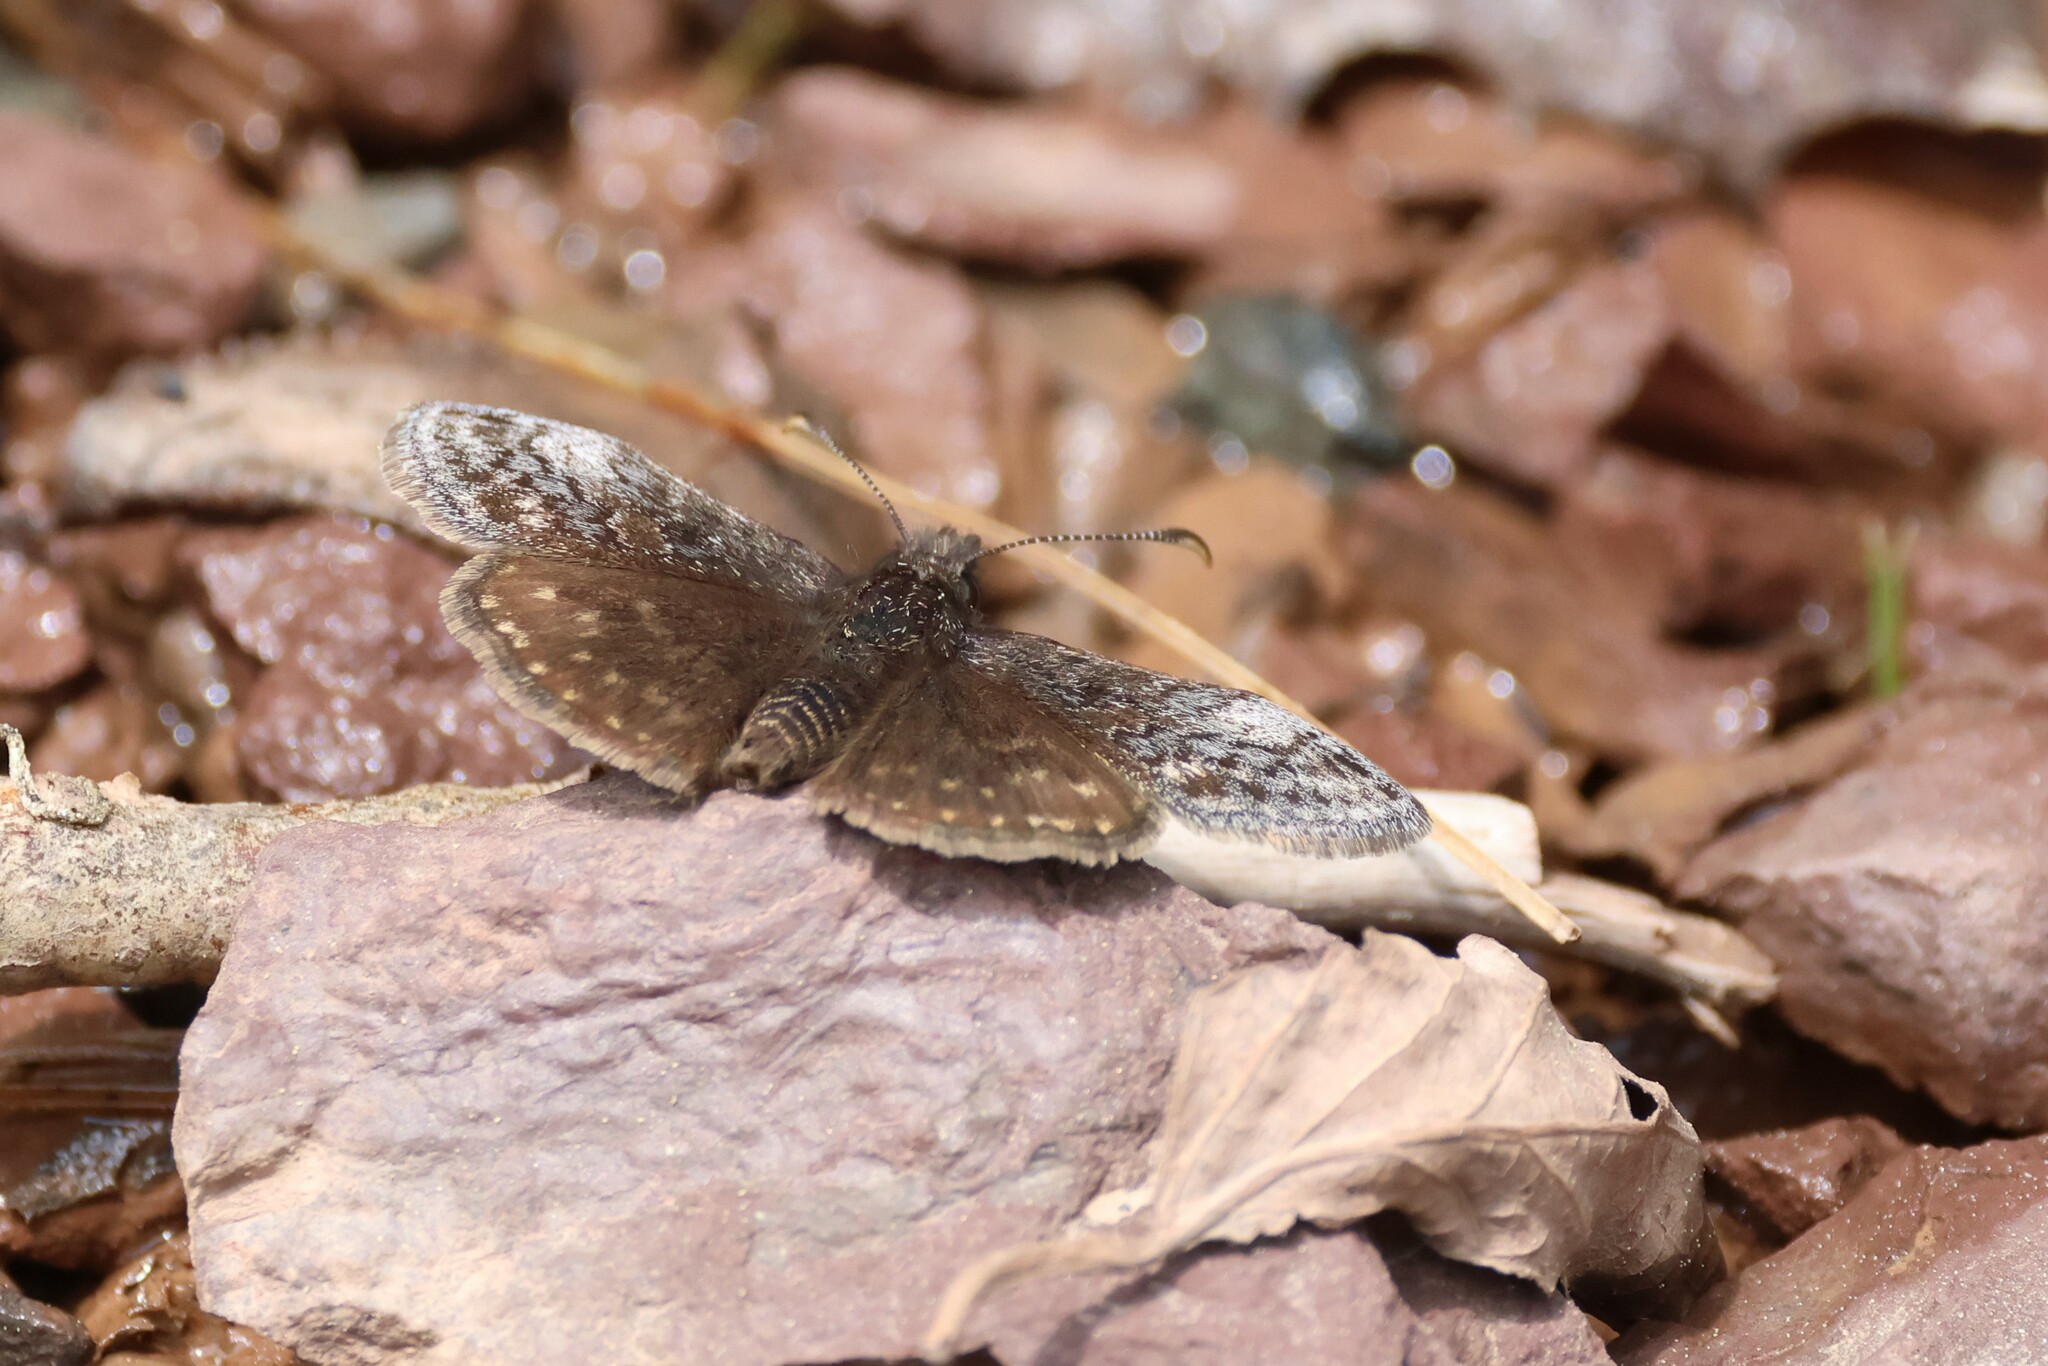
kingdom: Animalia
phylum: Arthropoda
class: Insecta
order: Lepidoptera
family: Hesperiidae
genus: Erynnis
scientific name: Erynnis icelus
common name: Dreamy duskywing
